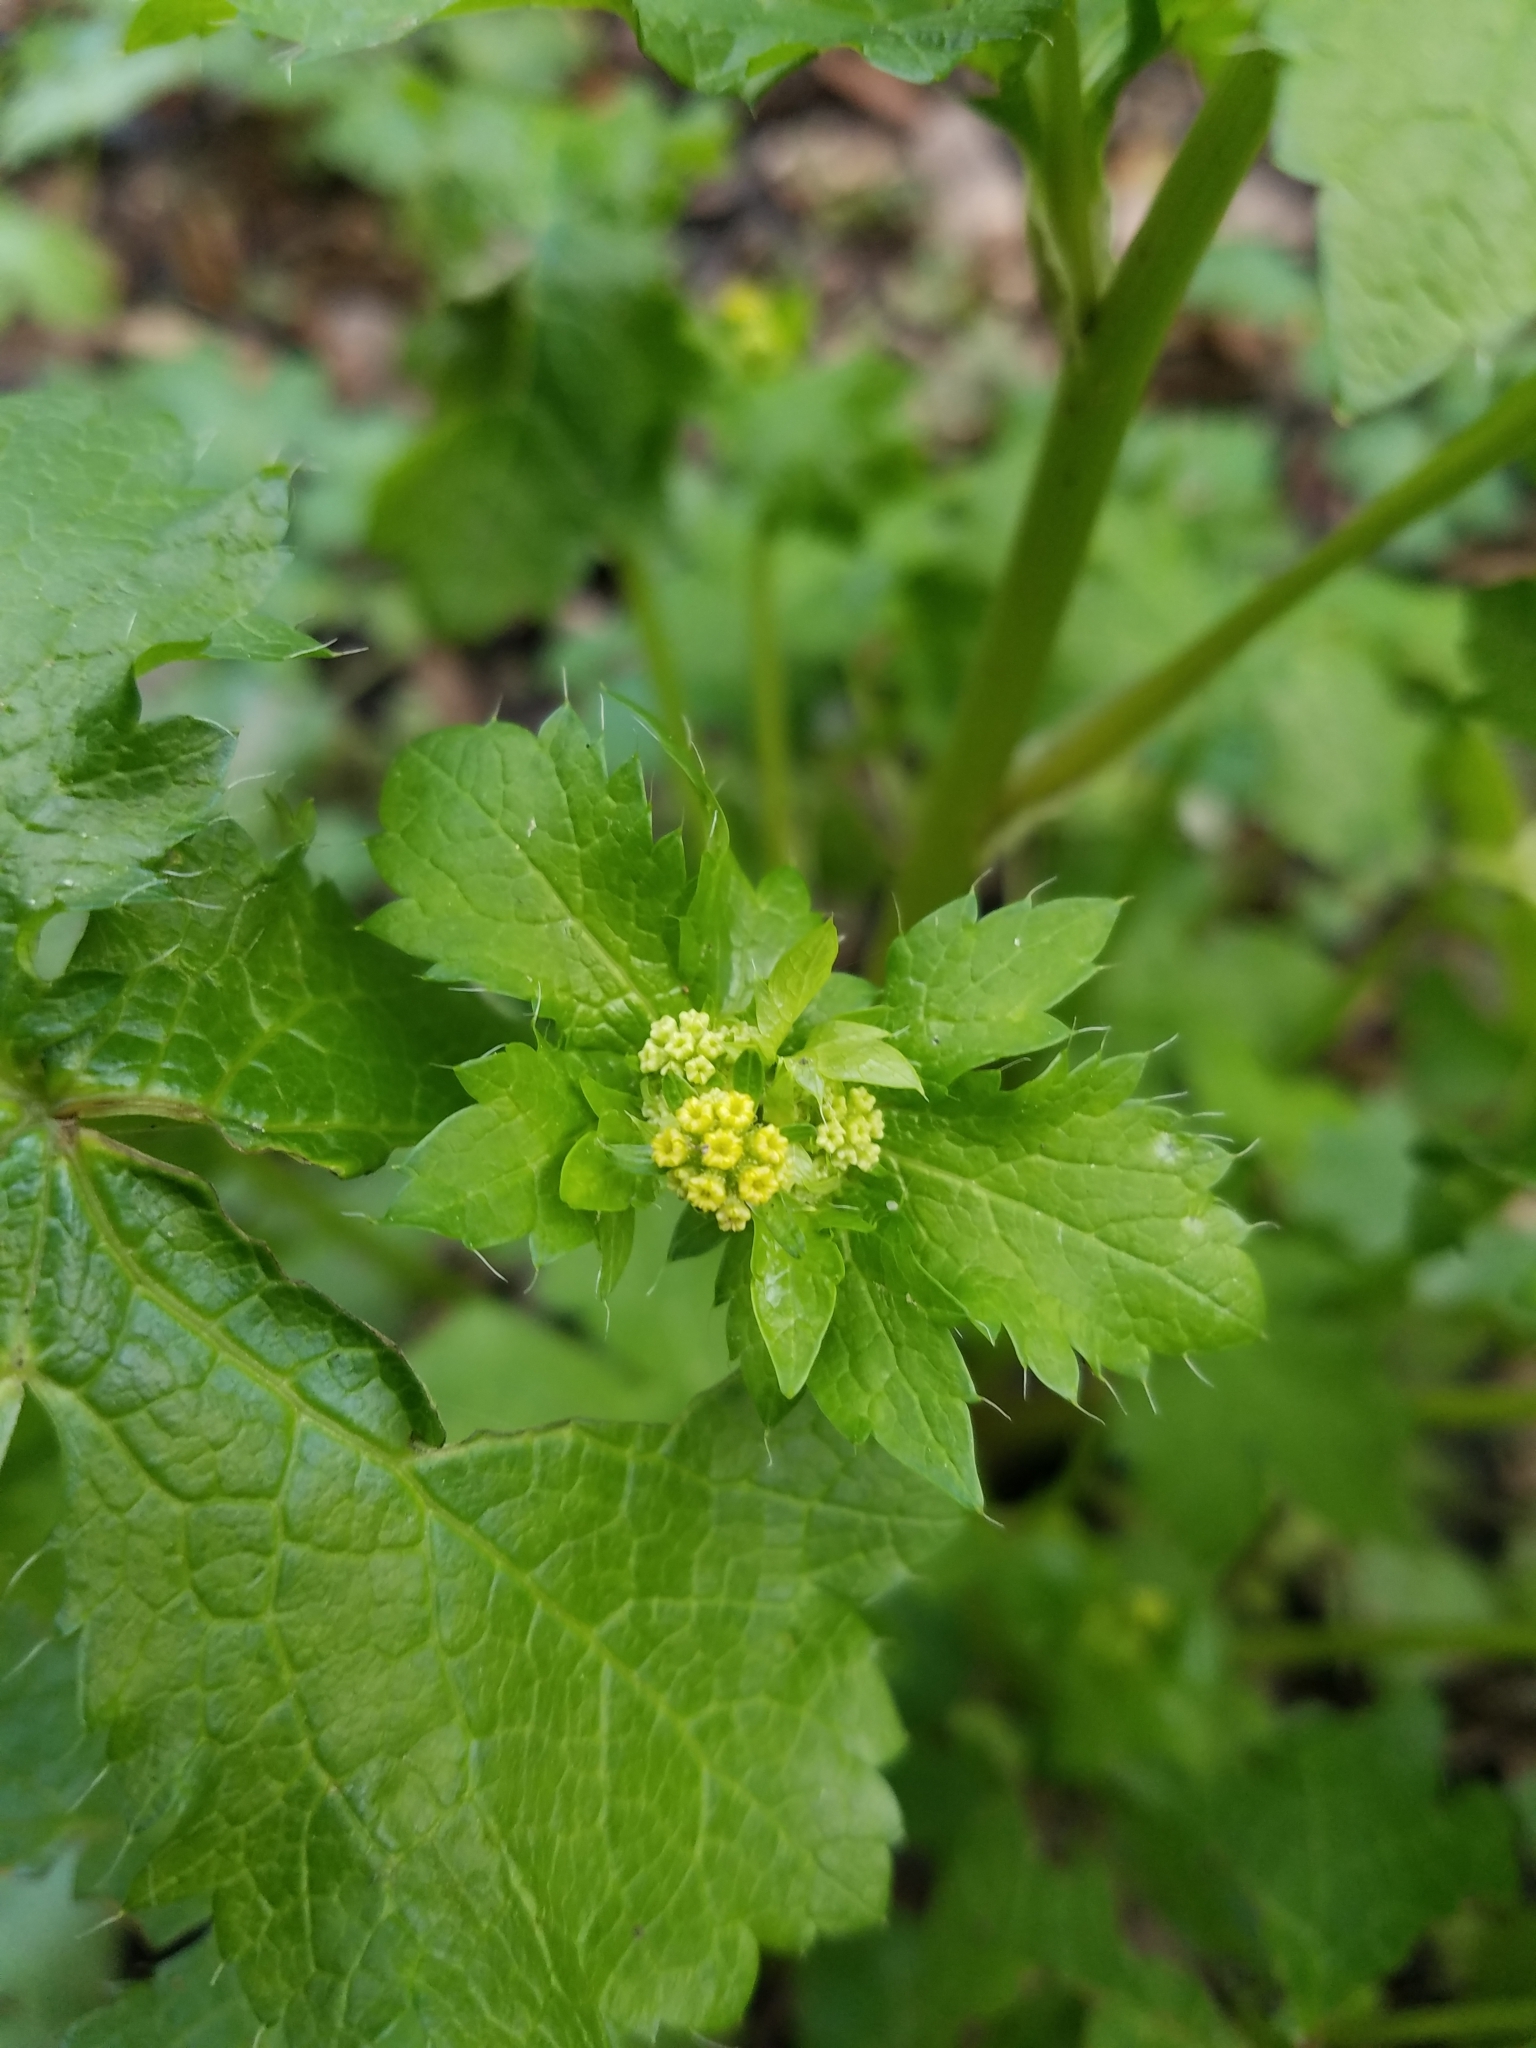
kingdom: Plantae
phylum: Tracheophyta
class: Magnoliopsida
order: Apiales
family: Apiaceae
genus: Sanicula
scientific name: Sanicula crassicaulis
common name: Western snakeroot
